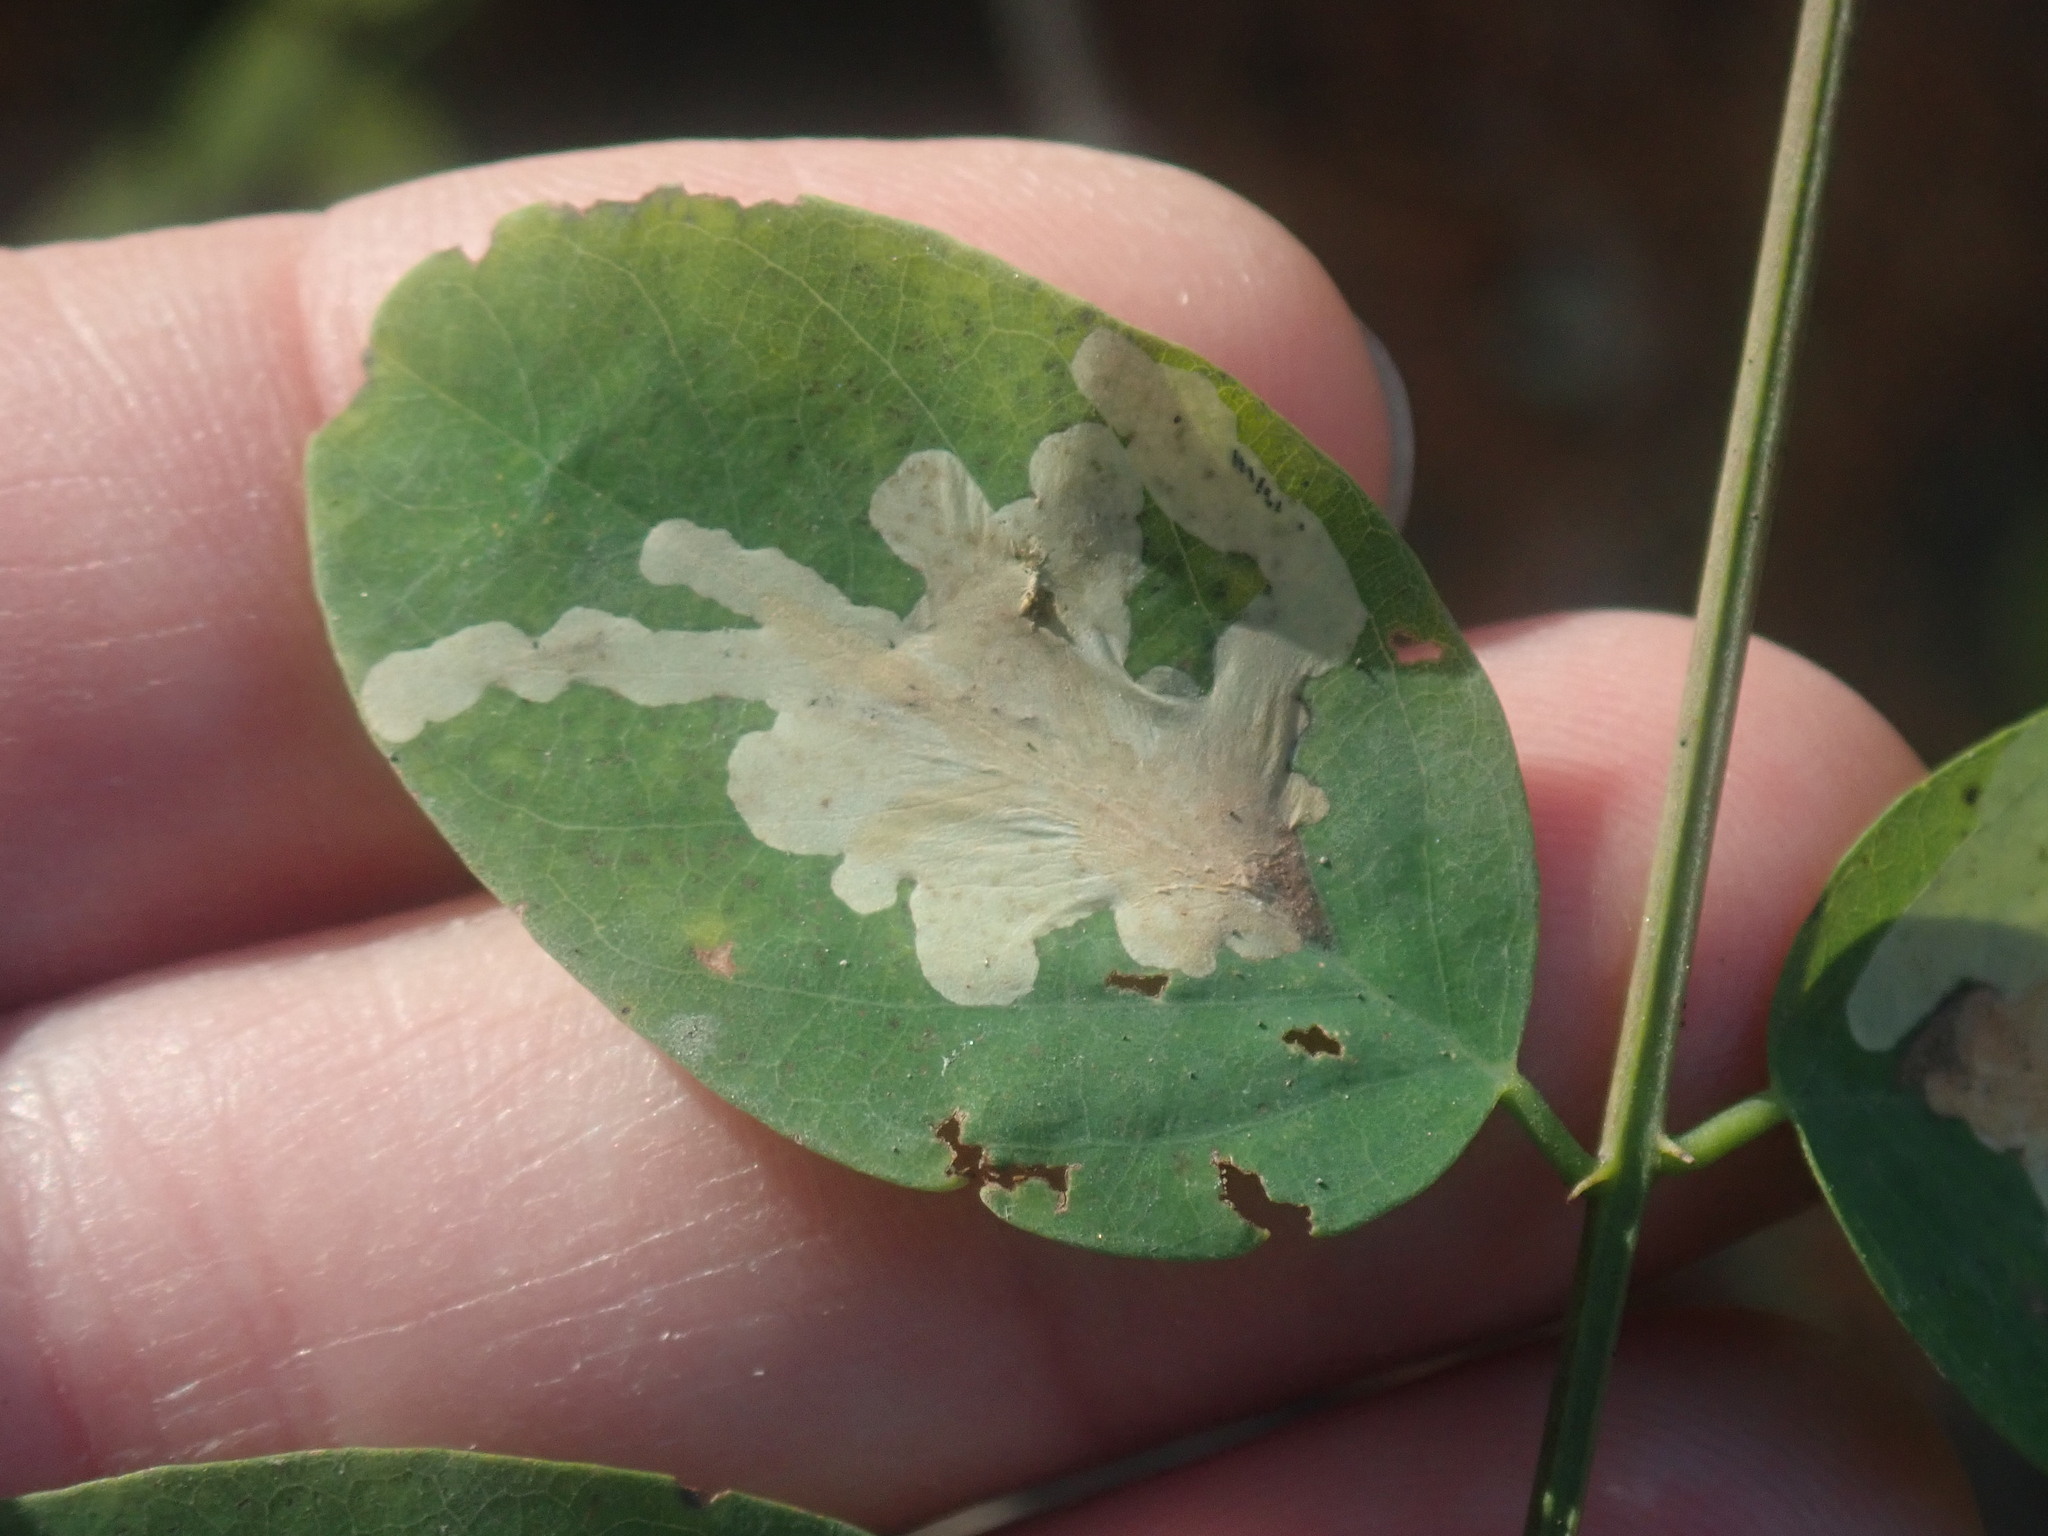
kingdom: Animalia
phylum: Arthropoda
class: Insecta
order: Lepidoptera
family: Gracillariidae
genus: Parectopa
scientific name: Parectopa robiniella
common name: Locust digitate leafminer
